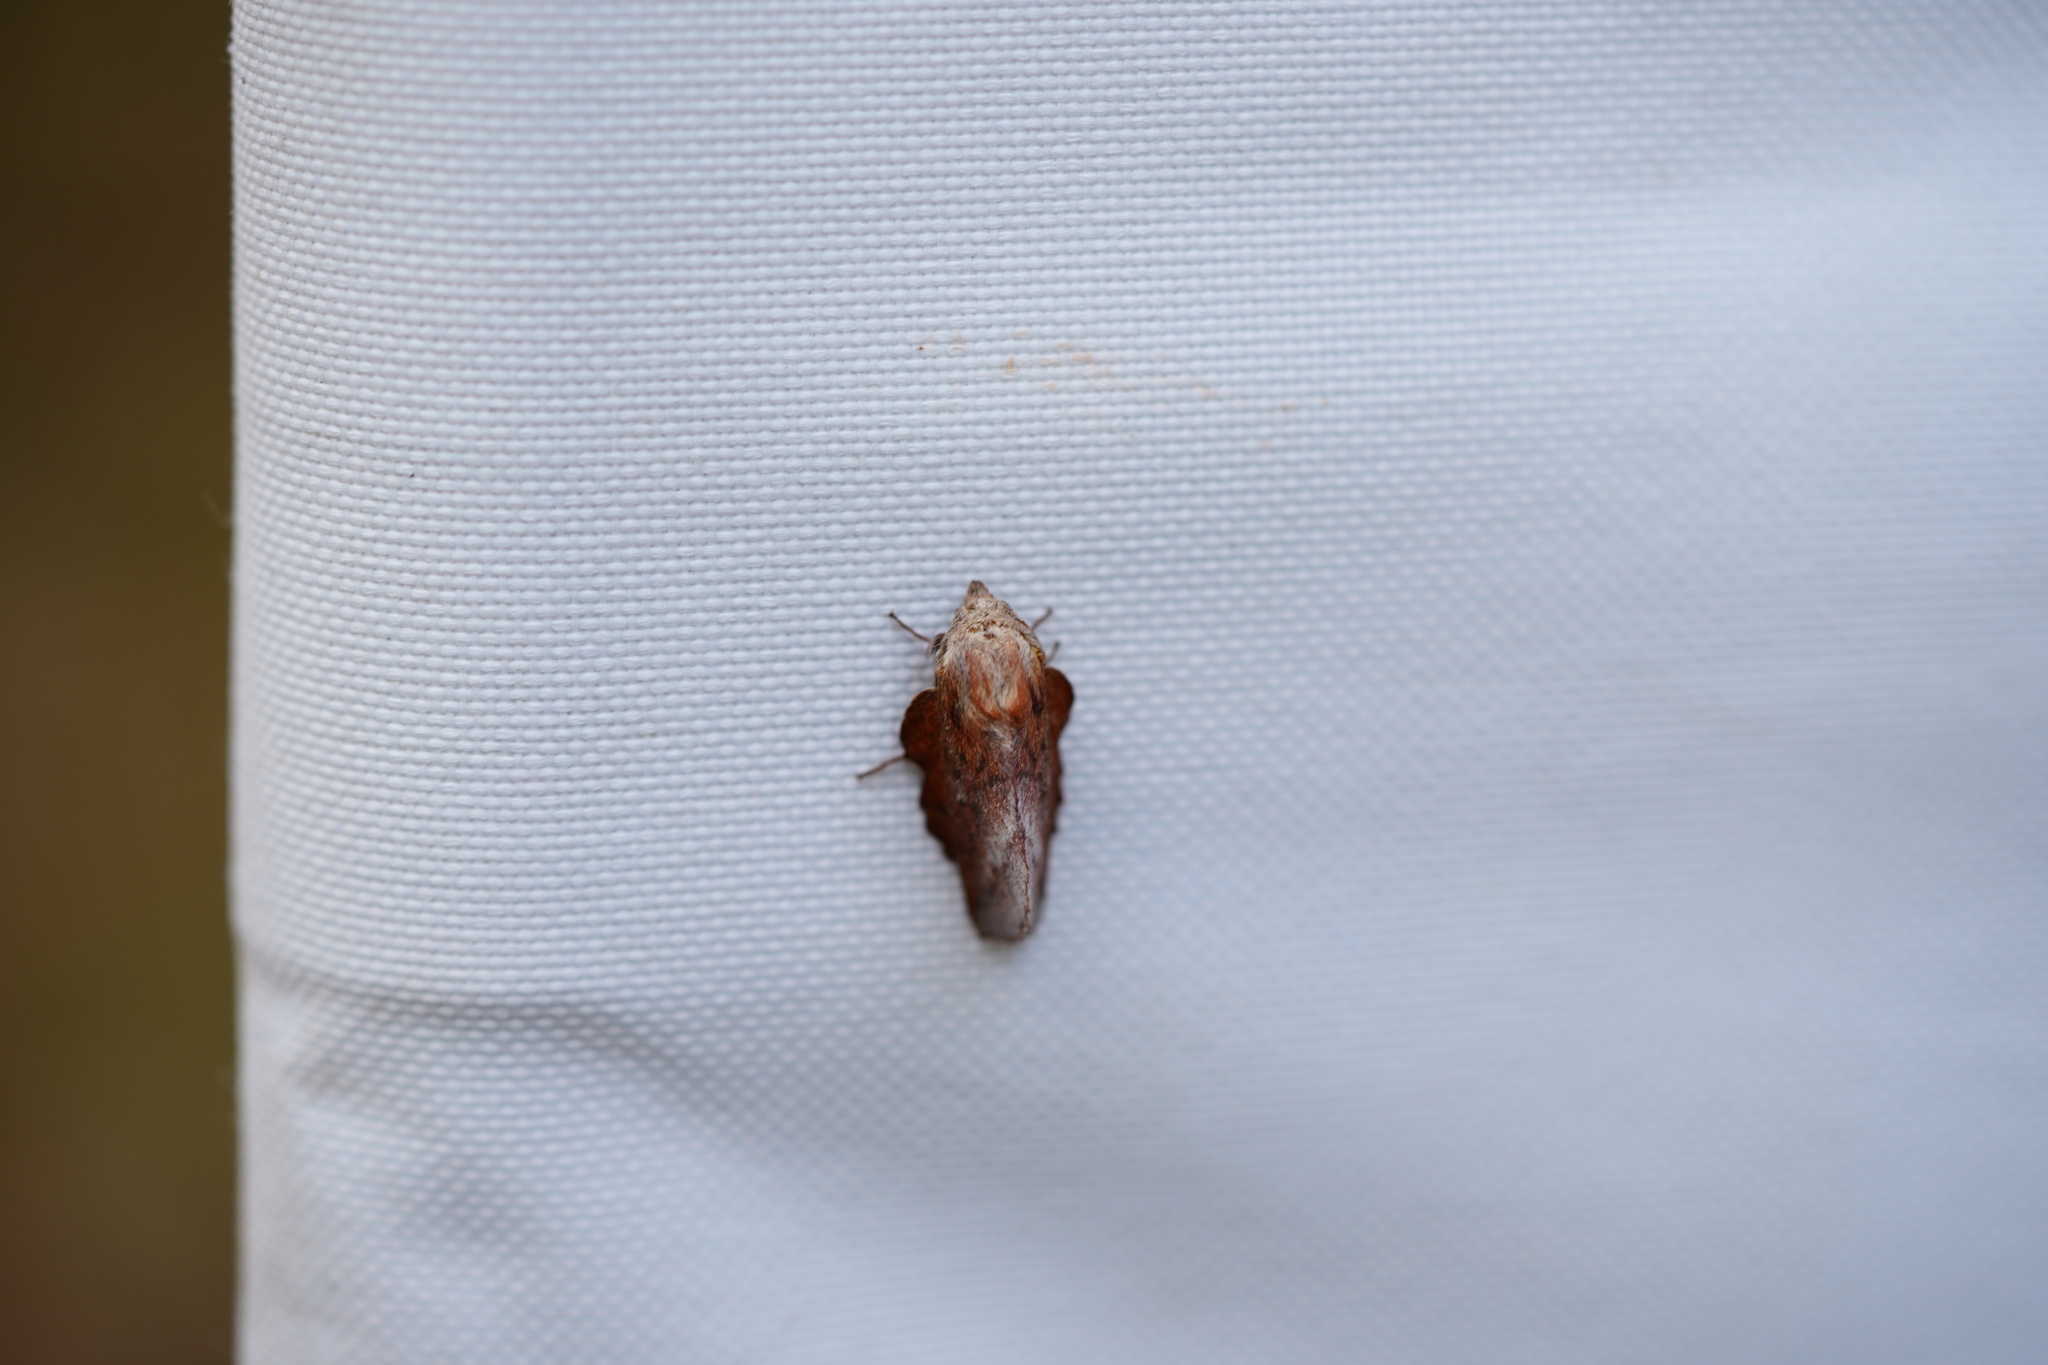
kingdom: Animalia
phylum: Arthropoda
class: Insecta
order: Lepidoptera
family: Lasiocampidae
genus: Phyllodesma
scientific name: Phyllodesma americana
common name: American lappet moth
